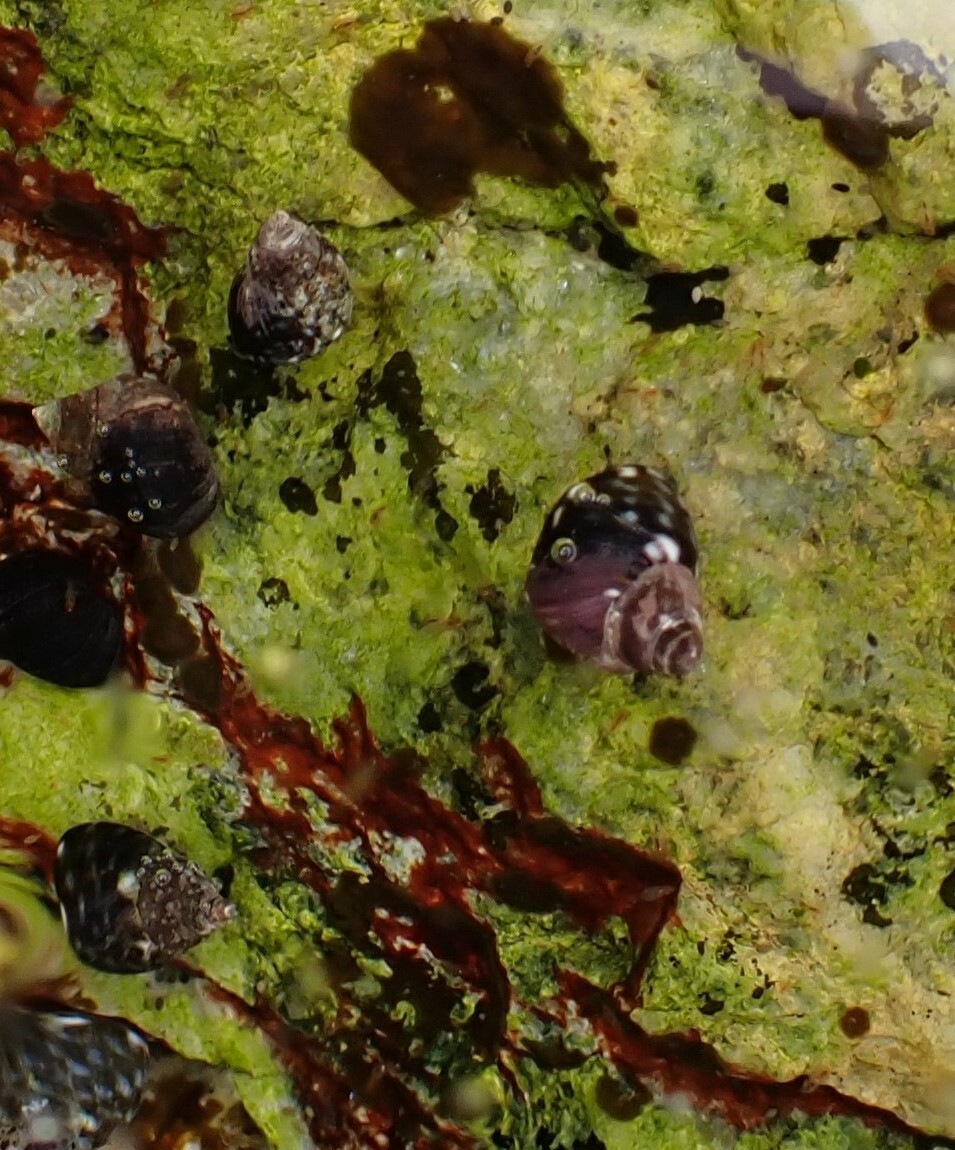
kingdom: Animalia
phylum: Mollusca
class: Gastropoda
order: Littorinimorpha
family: Littorinidae
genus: Littorina
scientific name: Littorina scutulata
